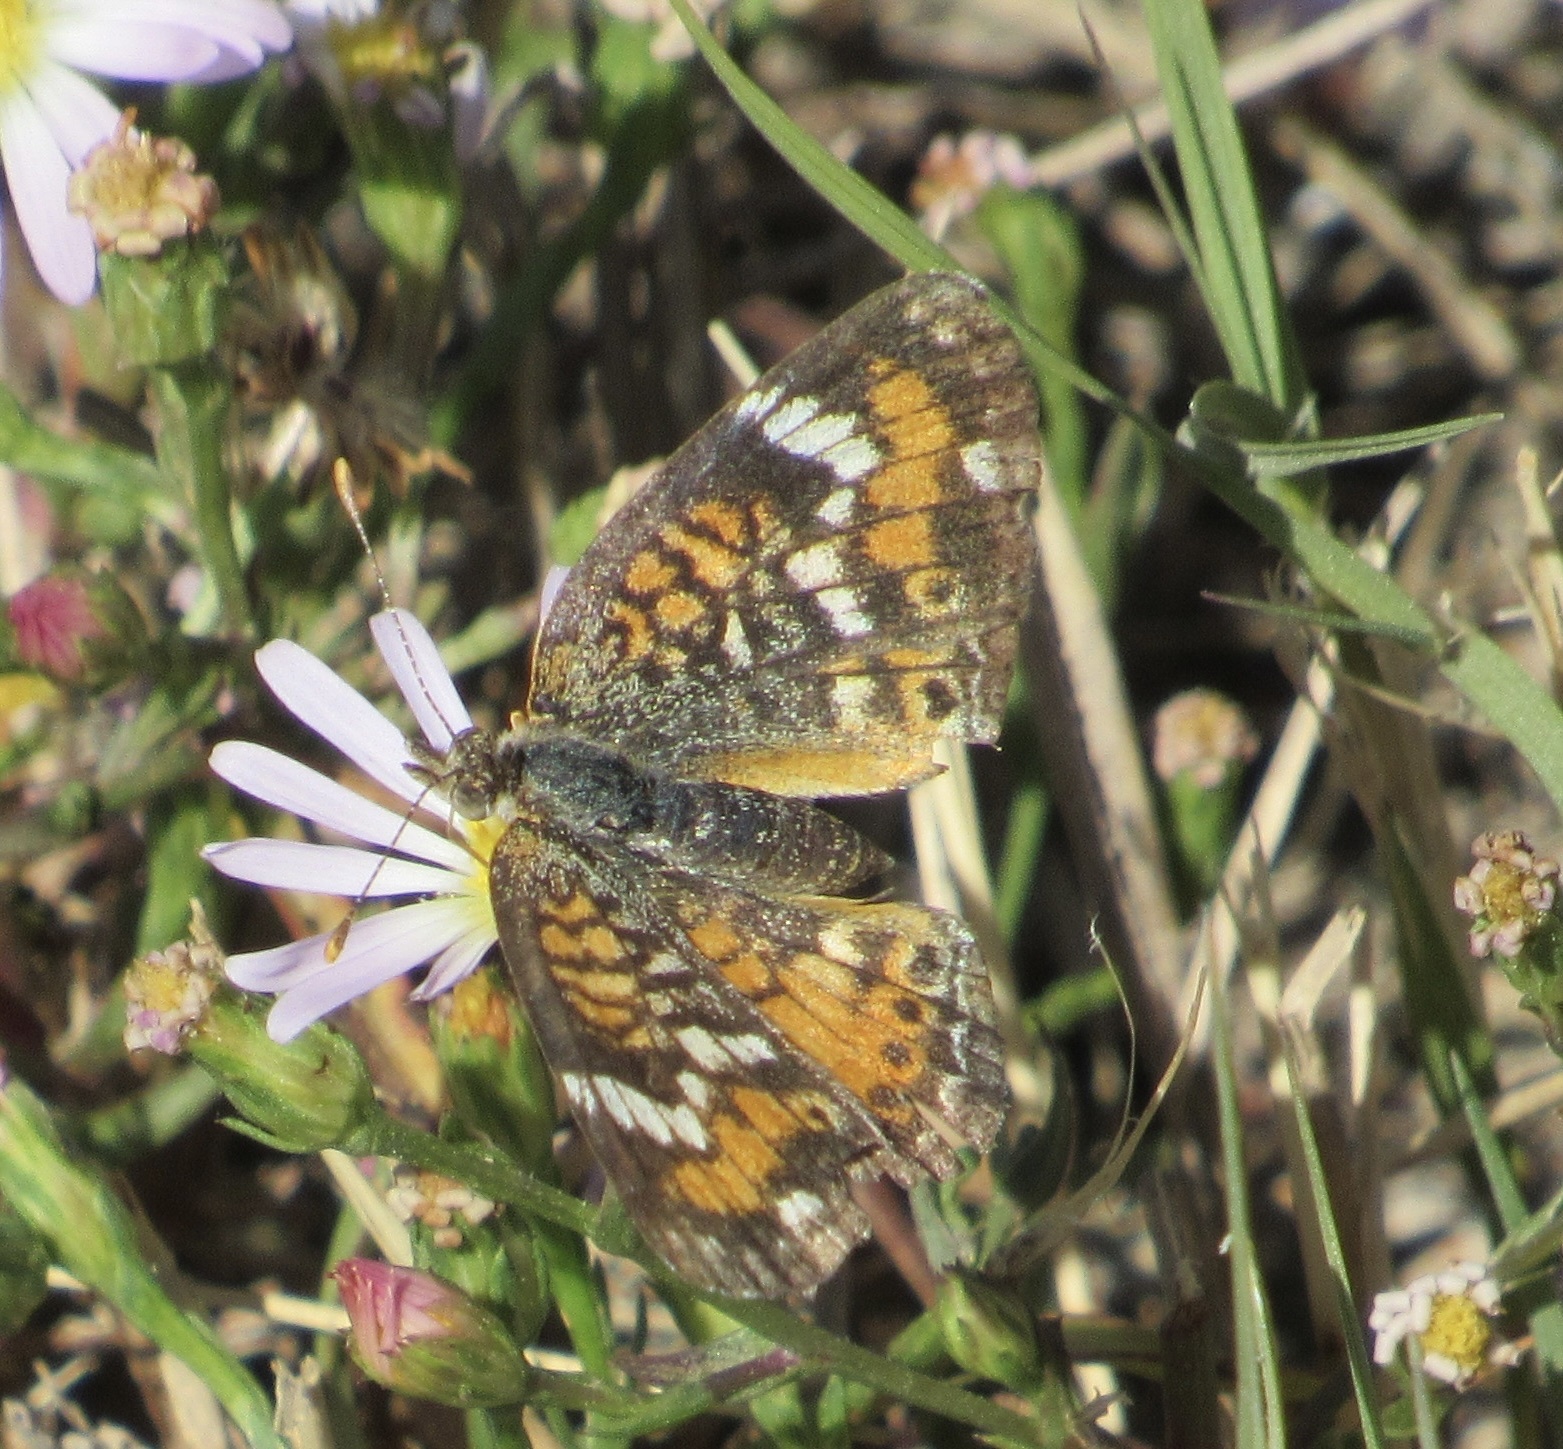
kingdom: Animalia
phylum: Arthropoda
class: Insecta
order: Lepidoptera
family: Nymphalidae
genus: Phyciodes
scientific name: Phyciodes phaon
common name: Phaon crescent
